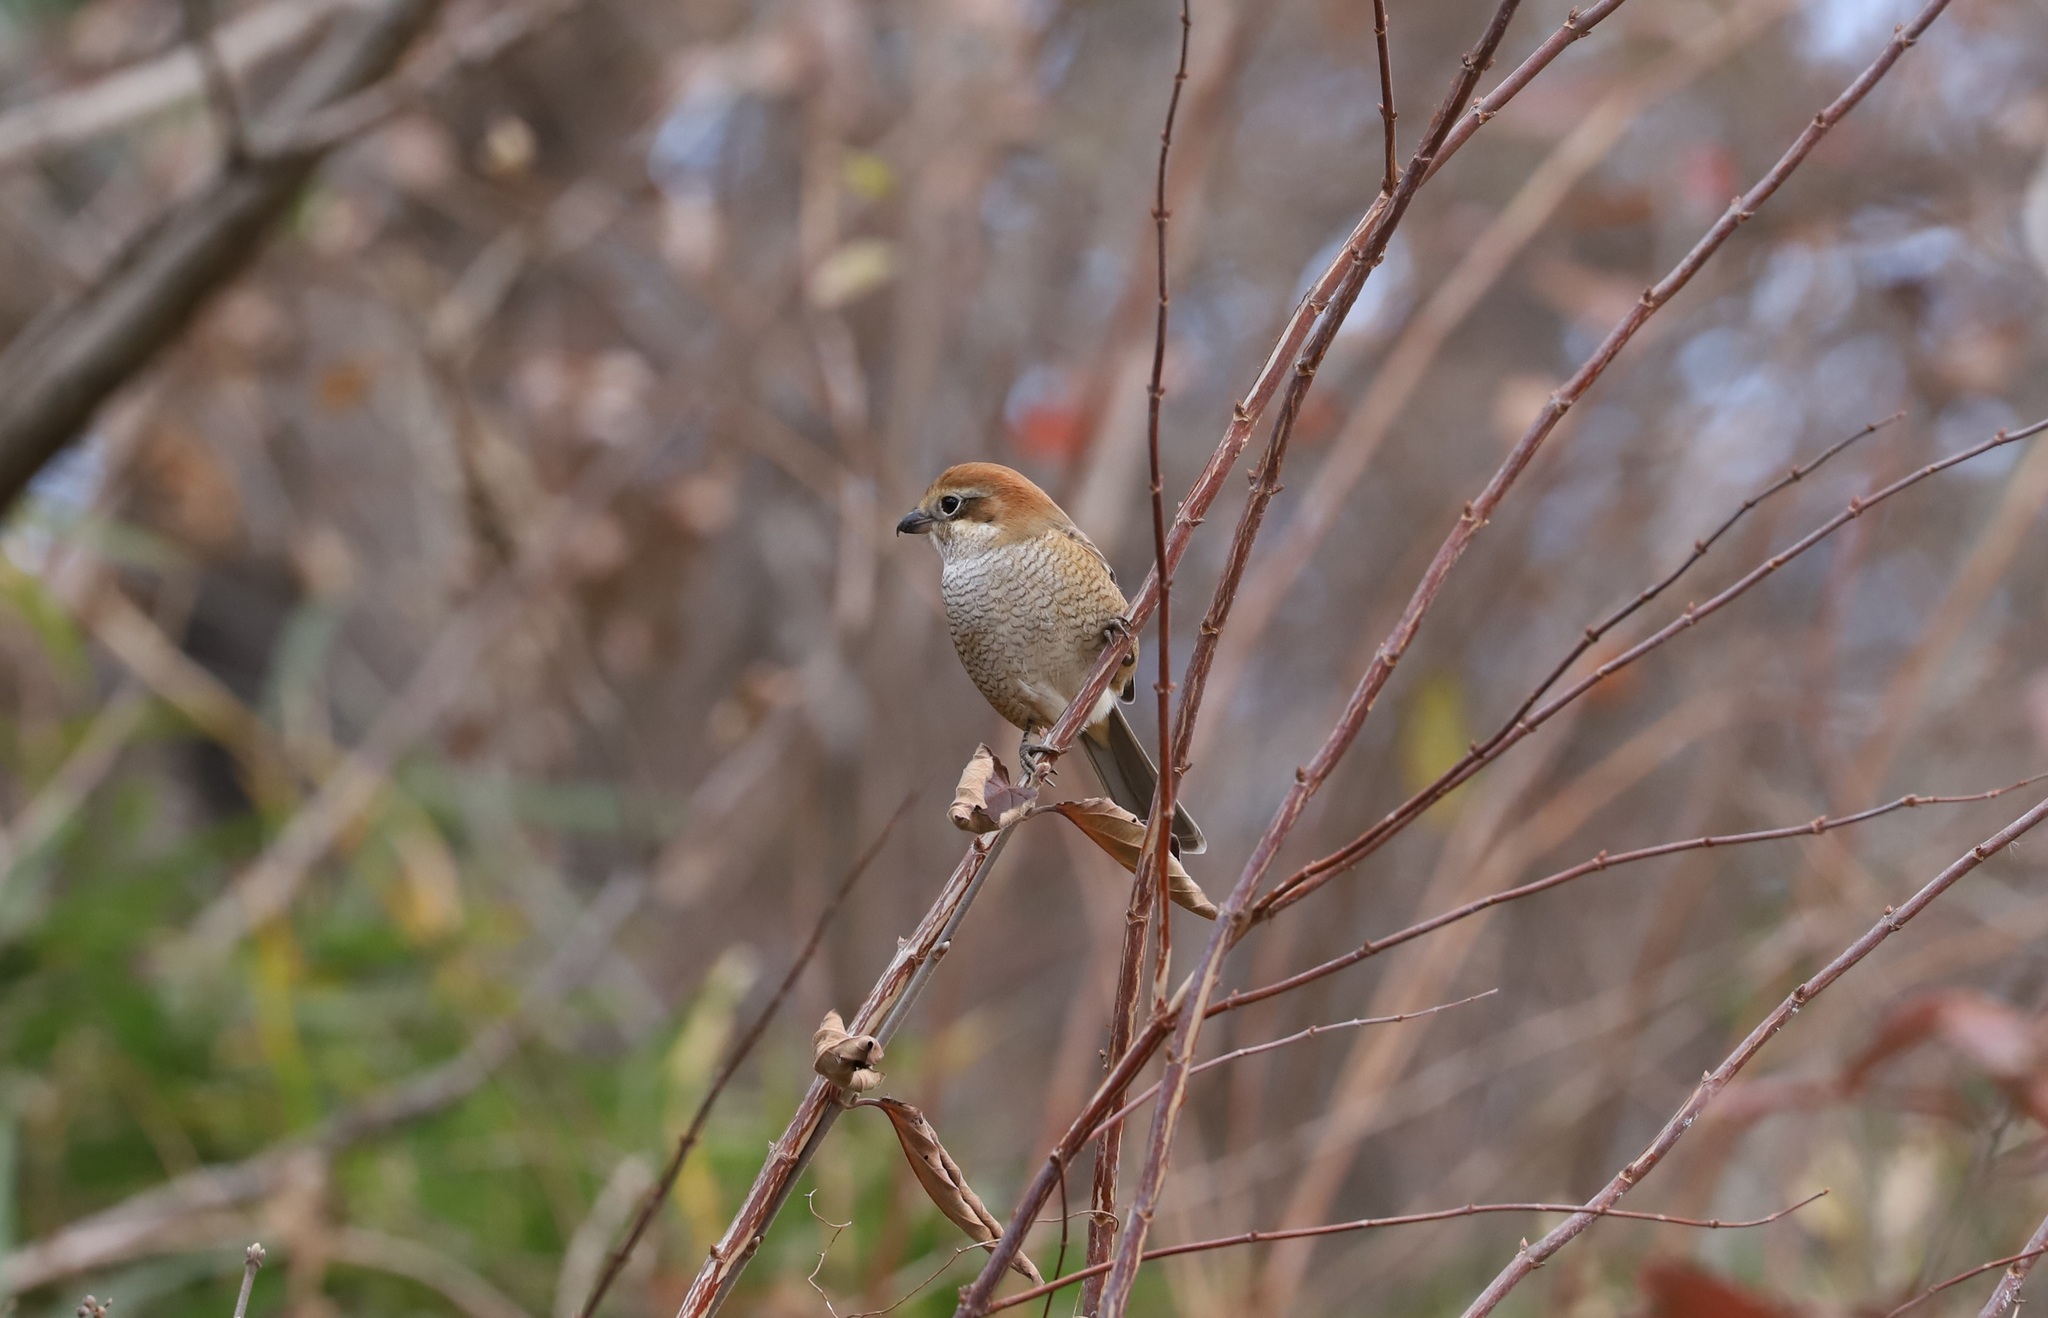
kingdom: Animalia
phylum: Chordata
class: Aves
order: Passeriformes
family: Laniidae
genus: Lanius
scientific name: Lanius bucephalus
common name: Bull-headed shrike
